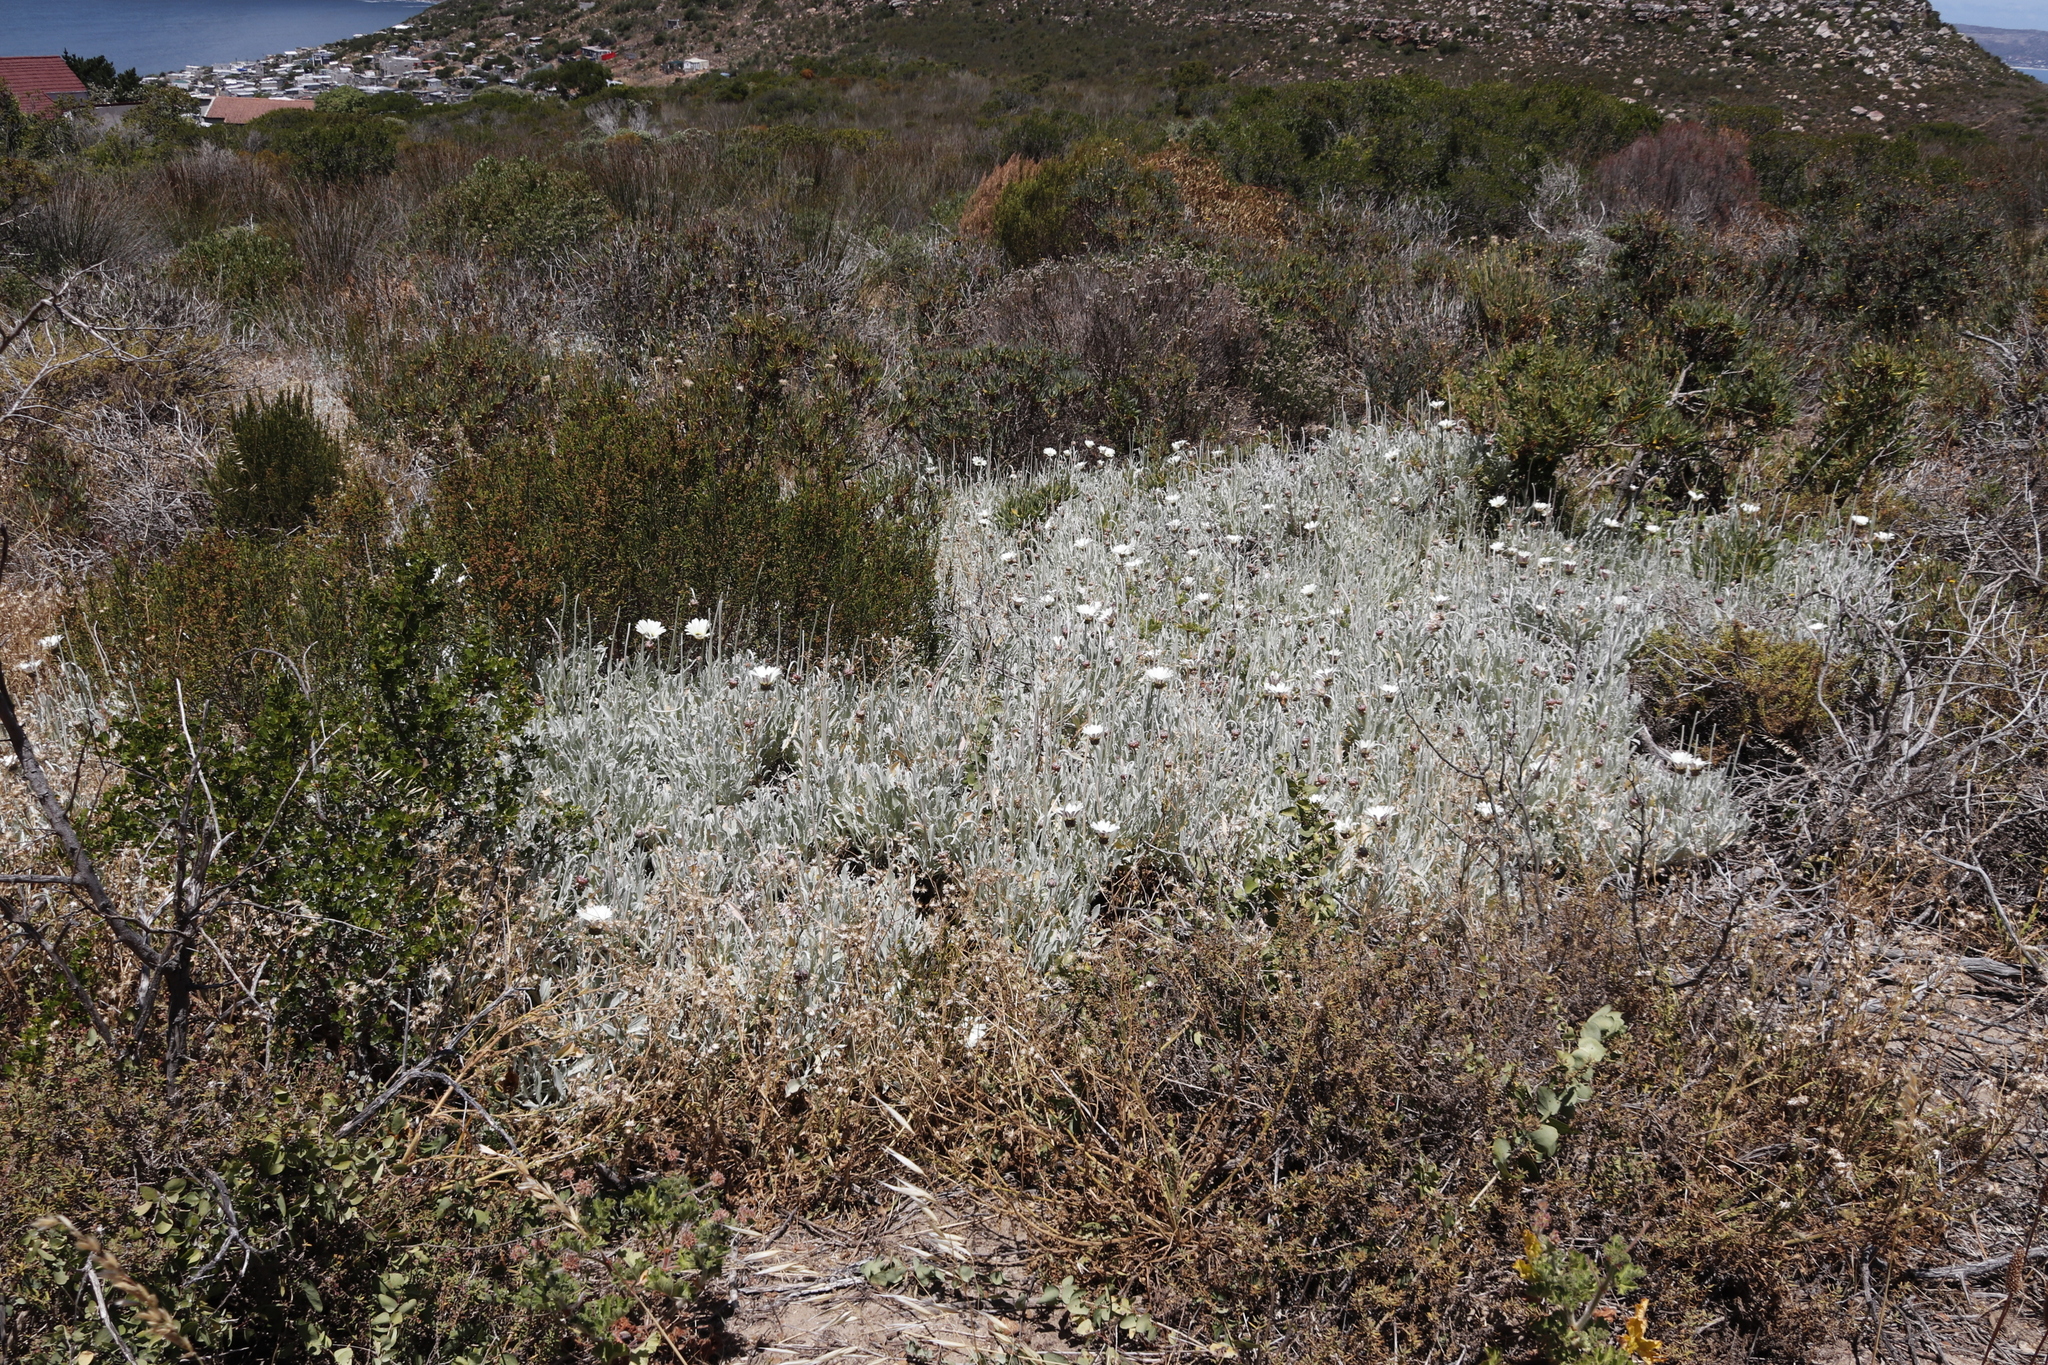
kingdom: Plantae
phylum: Tracheophyta
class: Magnoliopsida
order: Asterales
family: Asteraceae
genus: Arctotis
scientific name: Arctotis stoechadifolia
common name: African daisy
